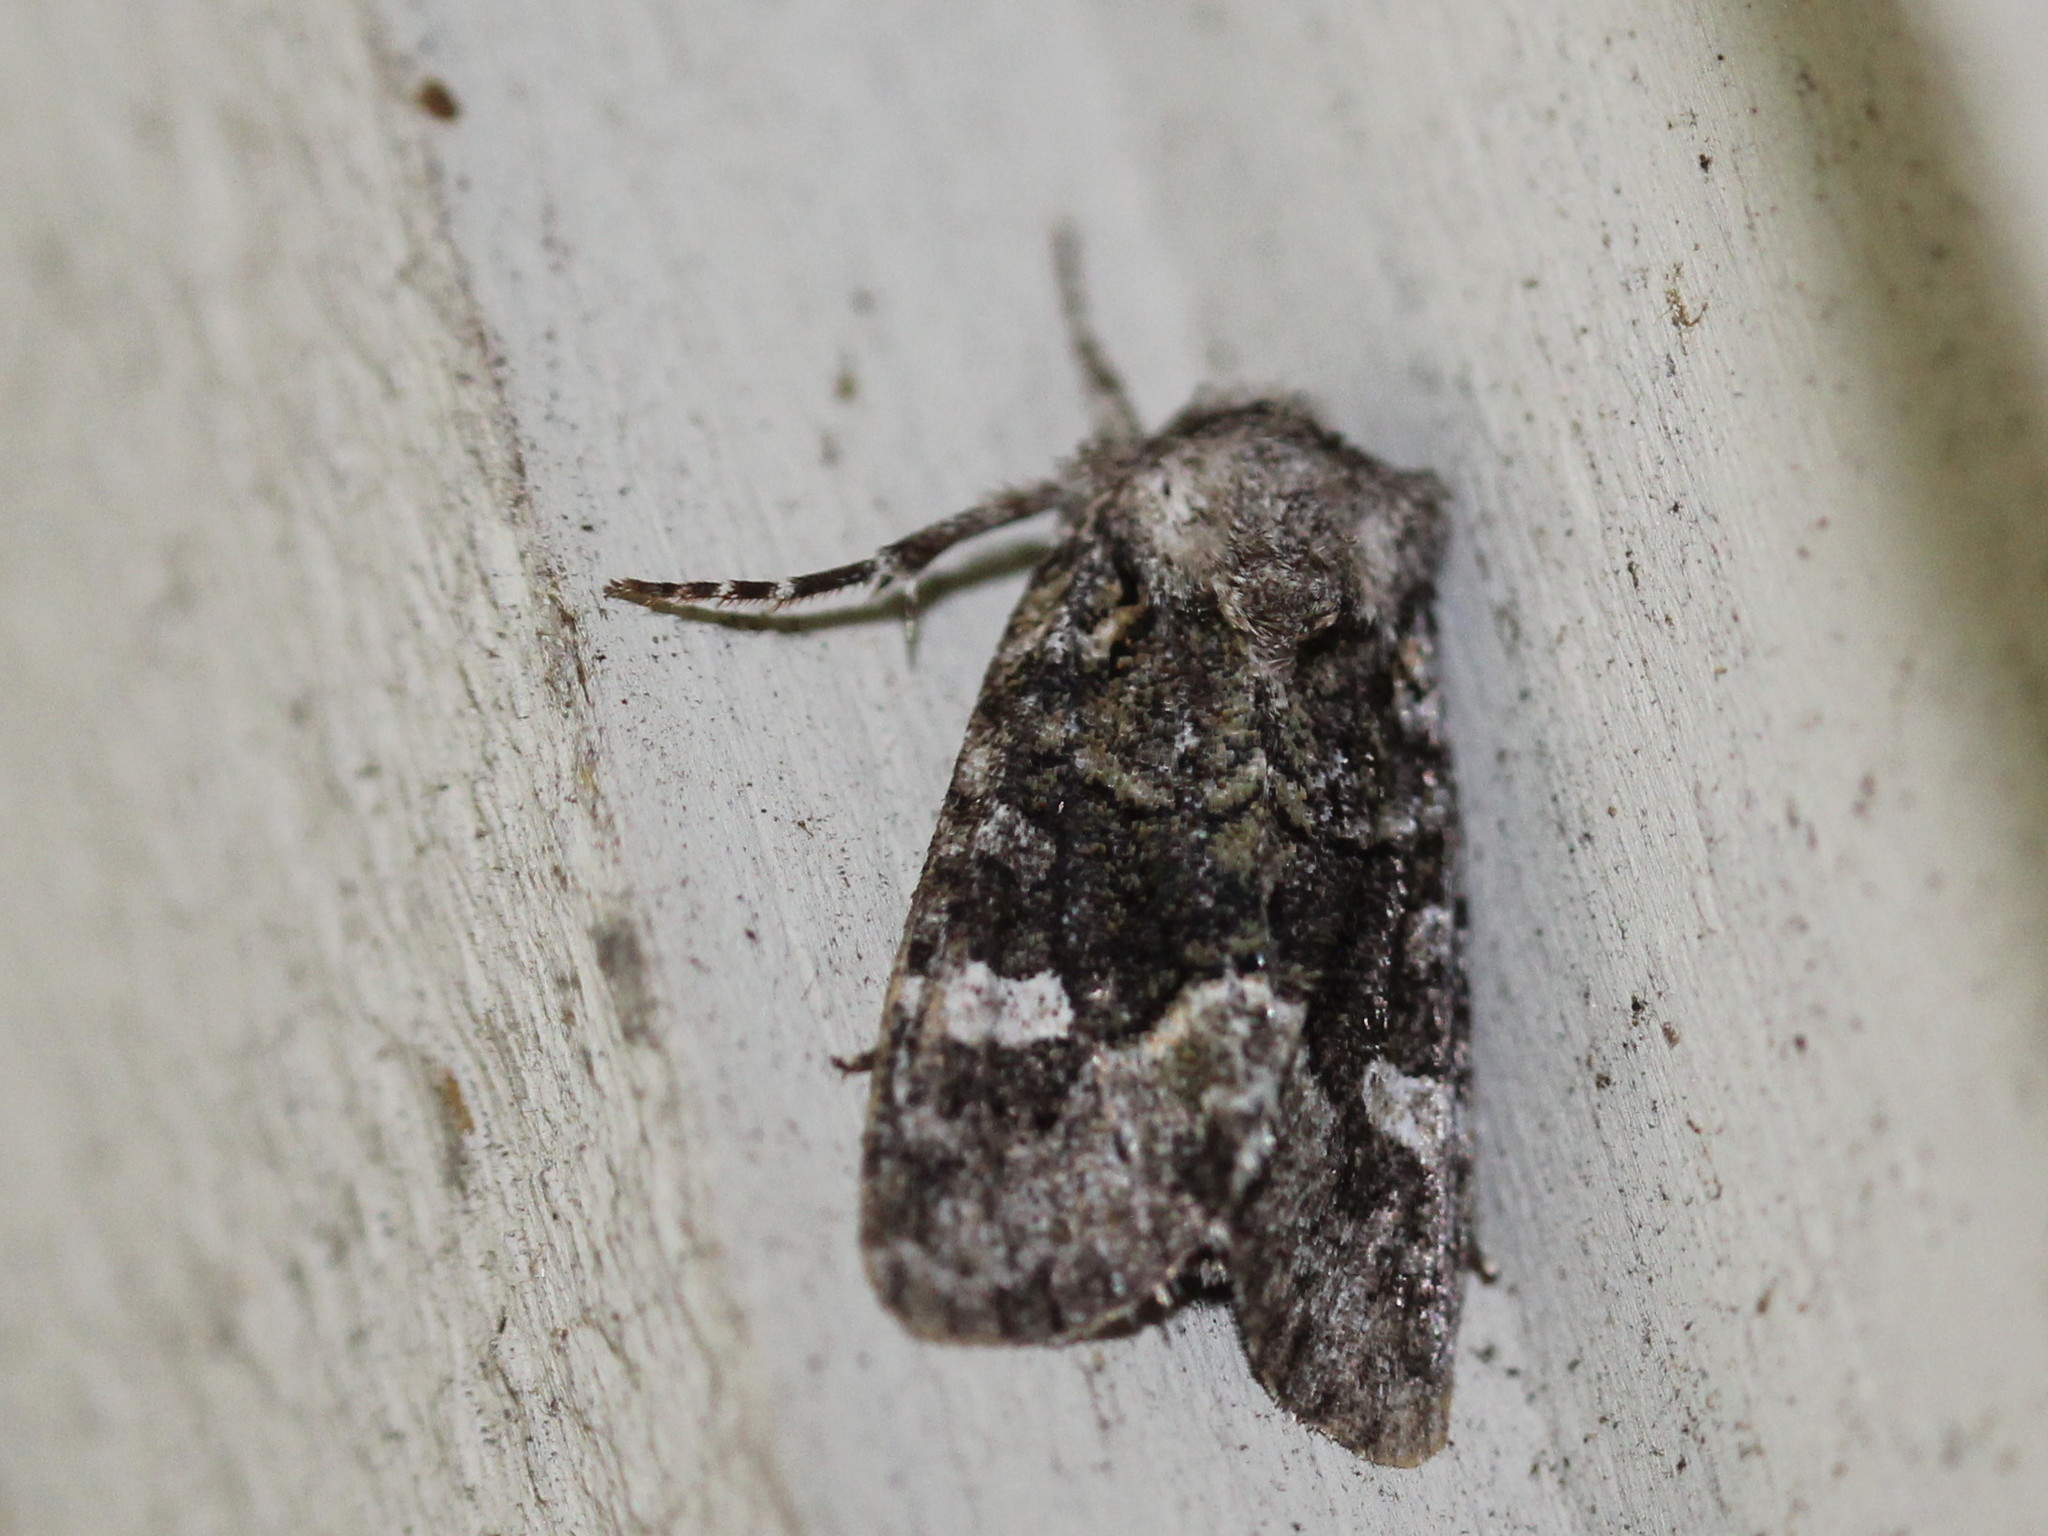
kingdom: Animalia
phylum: Arthropoda
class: Insecta
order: Lepidoptera
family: Noctuidae
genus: Lacinipolia
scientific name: Lacinipolia olivacea
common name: Olive arches moth
